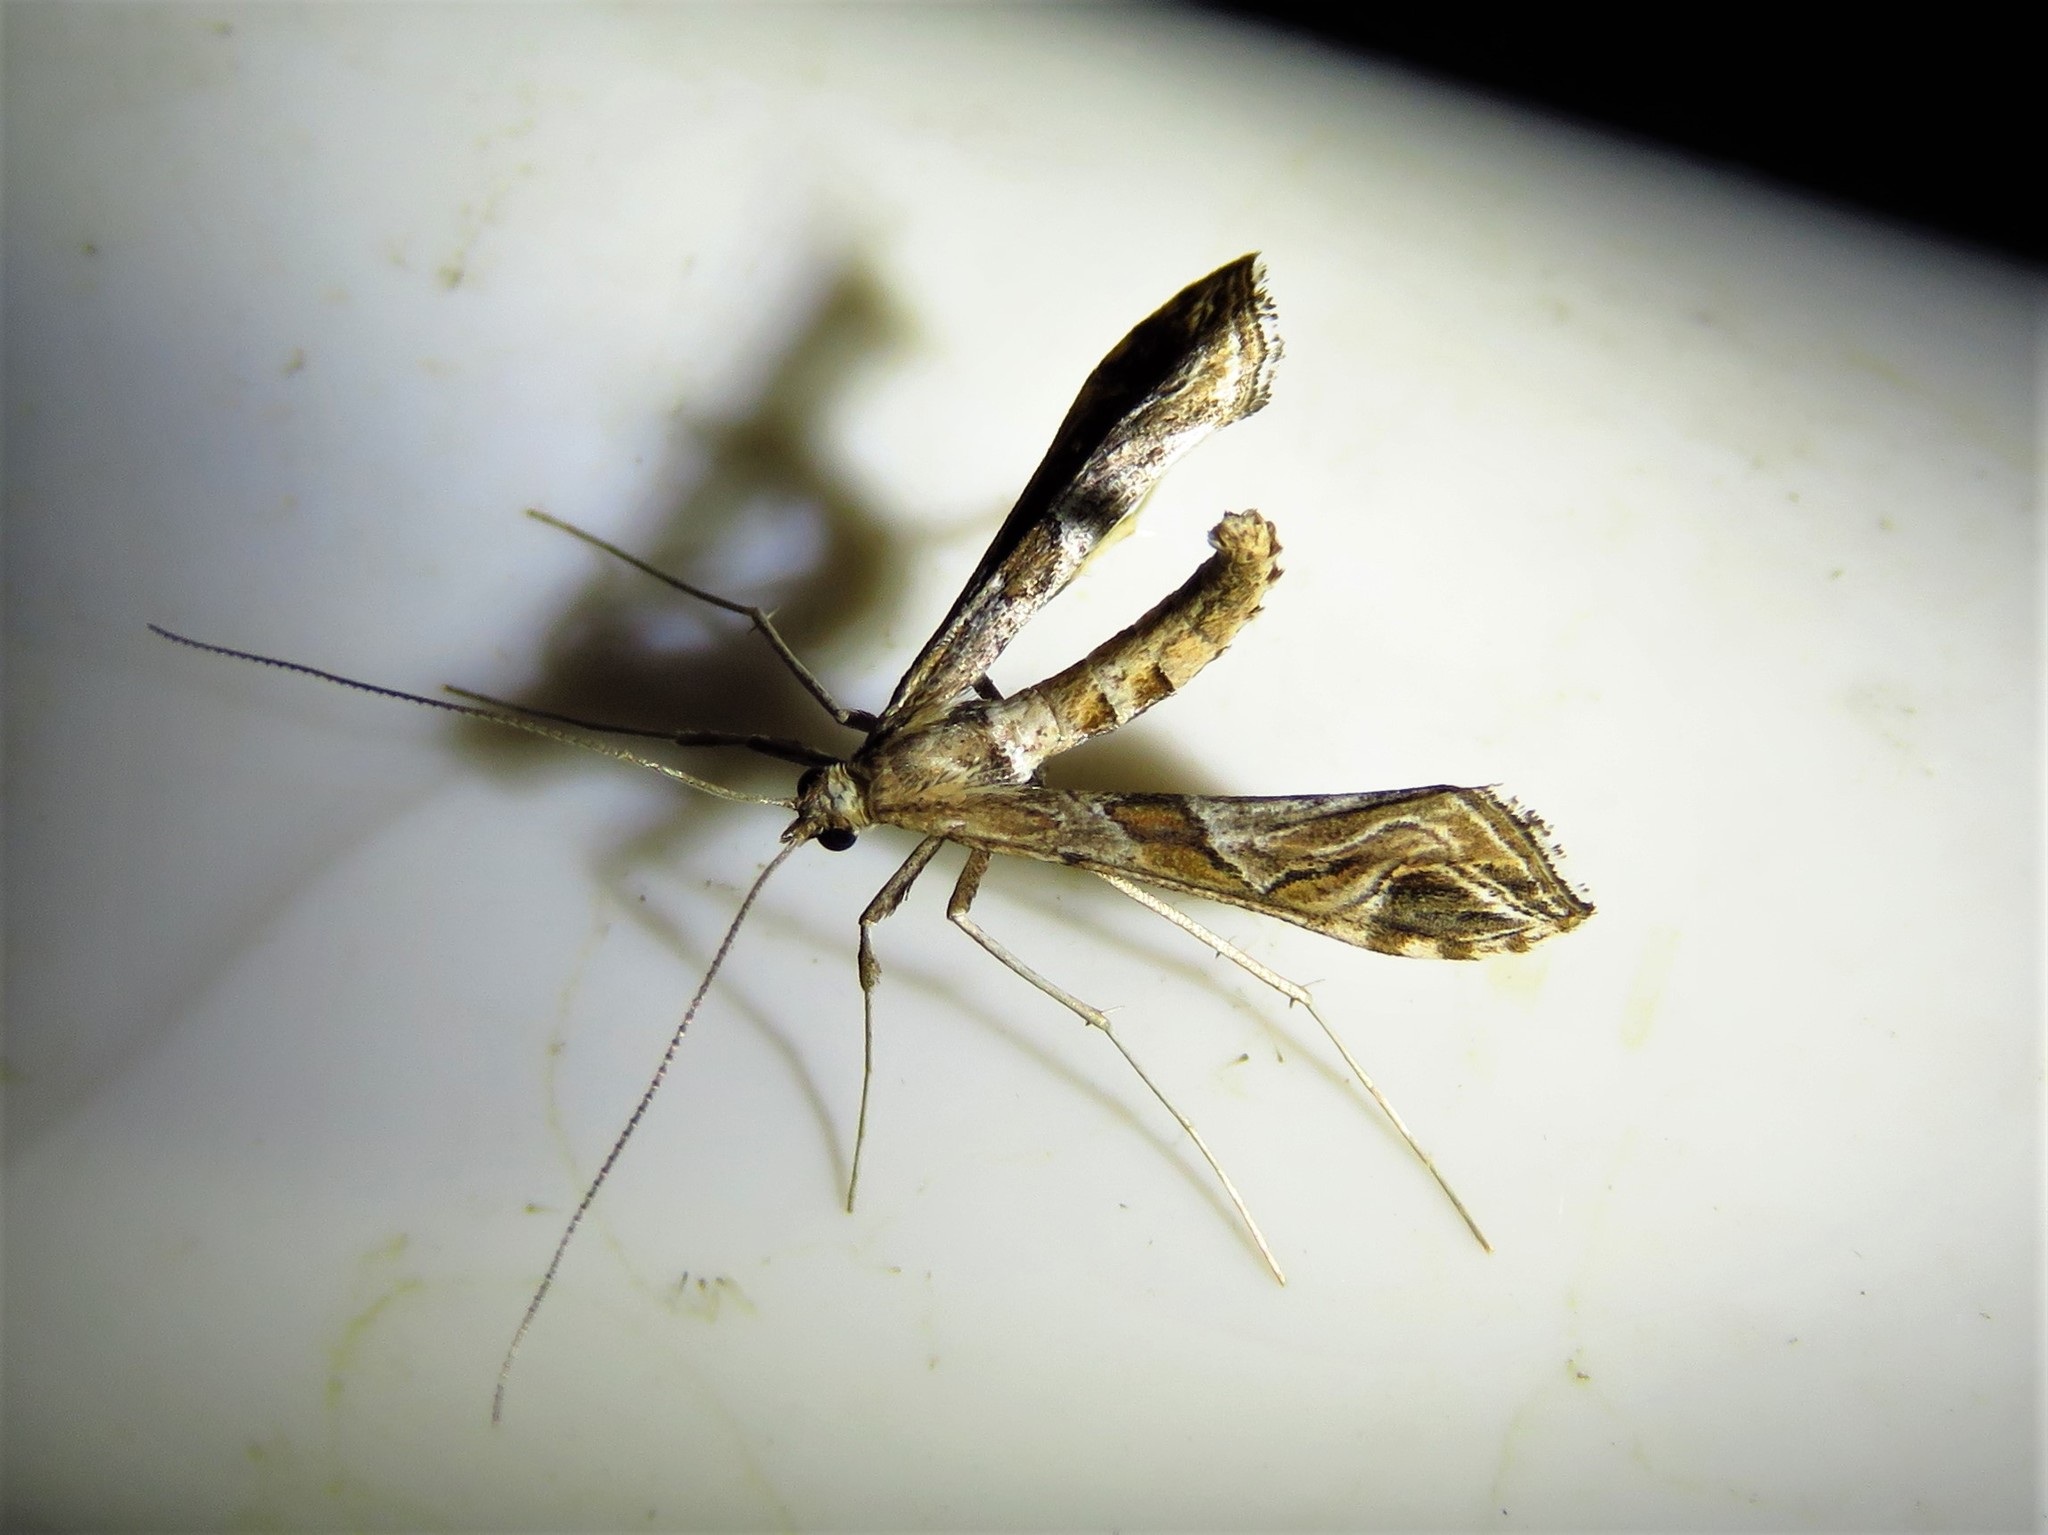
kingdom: Animalia
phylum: Arthropoda
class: Insecta
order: Lepidoptera
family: Crambidae
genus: Lineodes
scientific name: Lineodes interrupta
